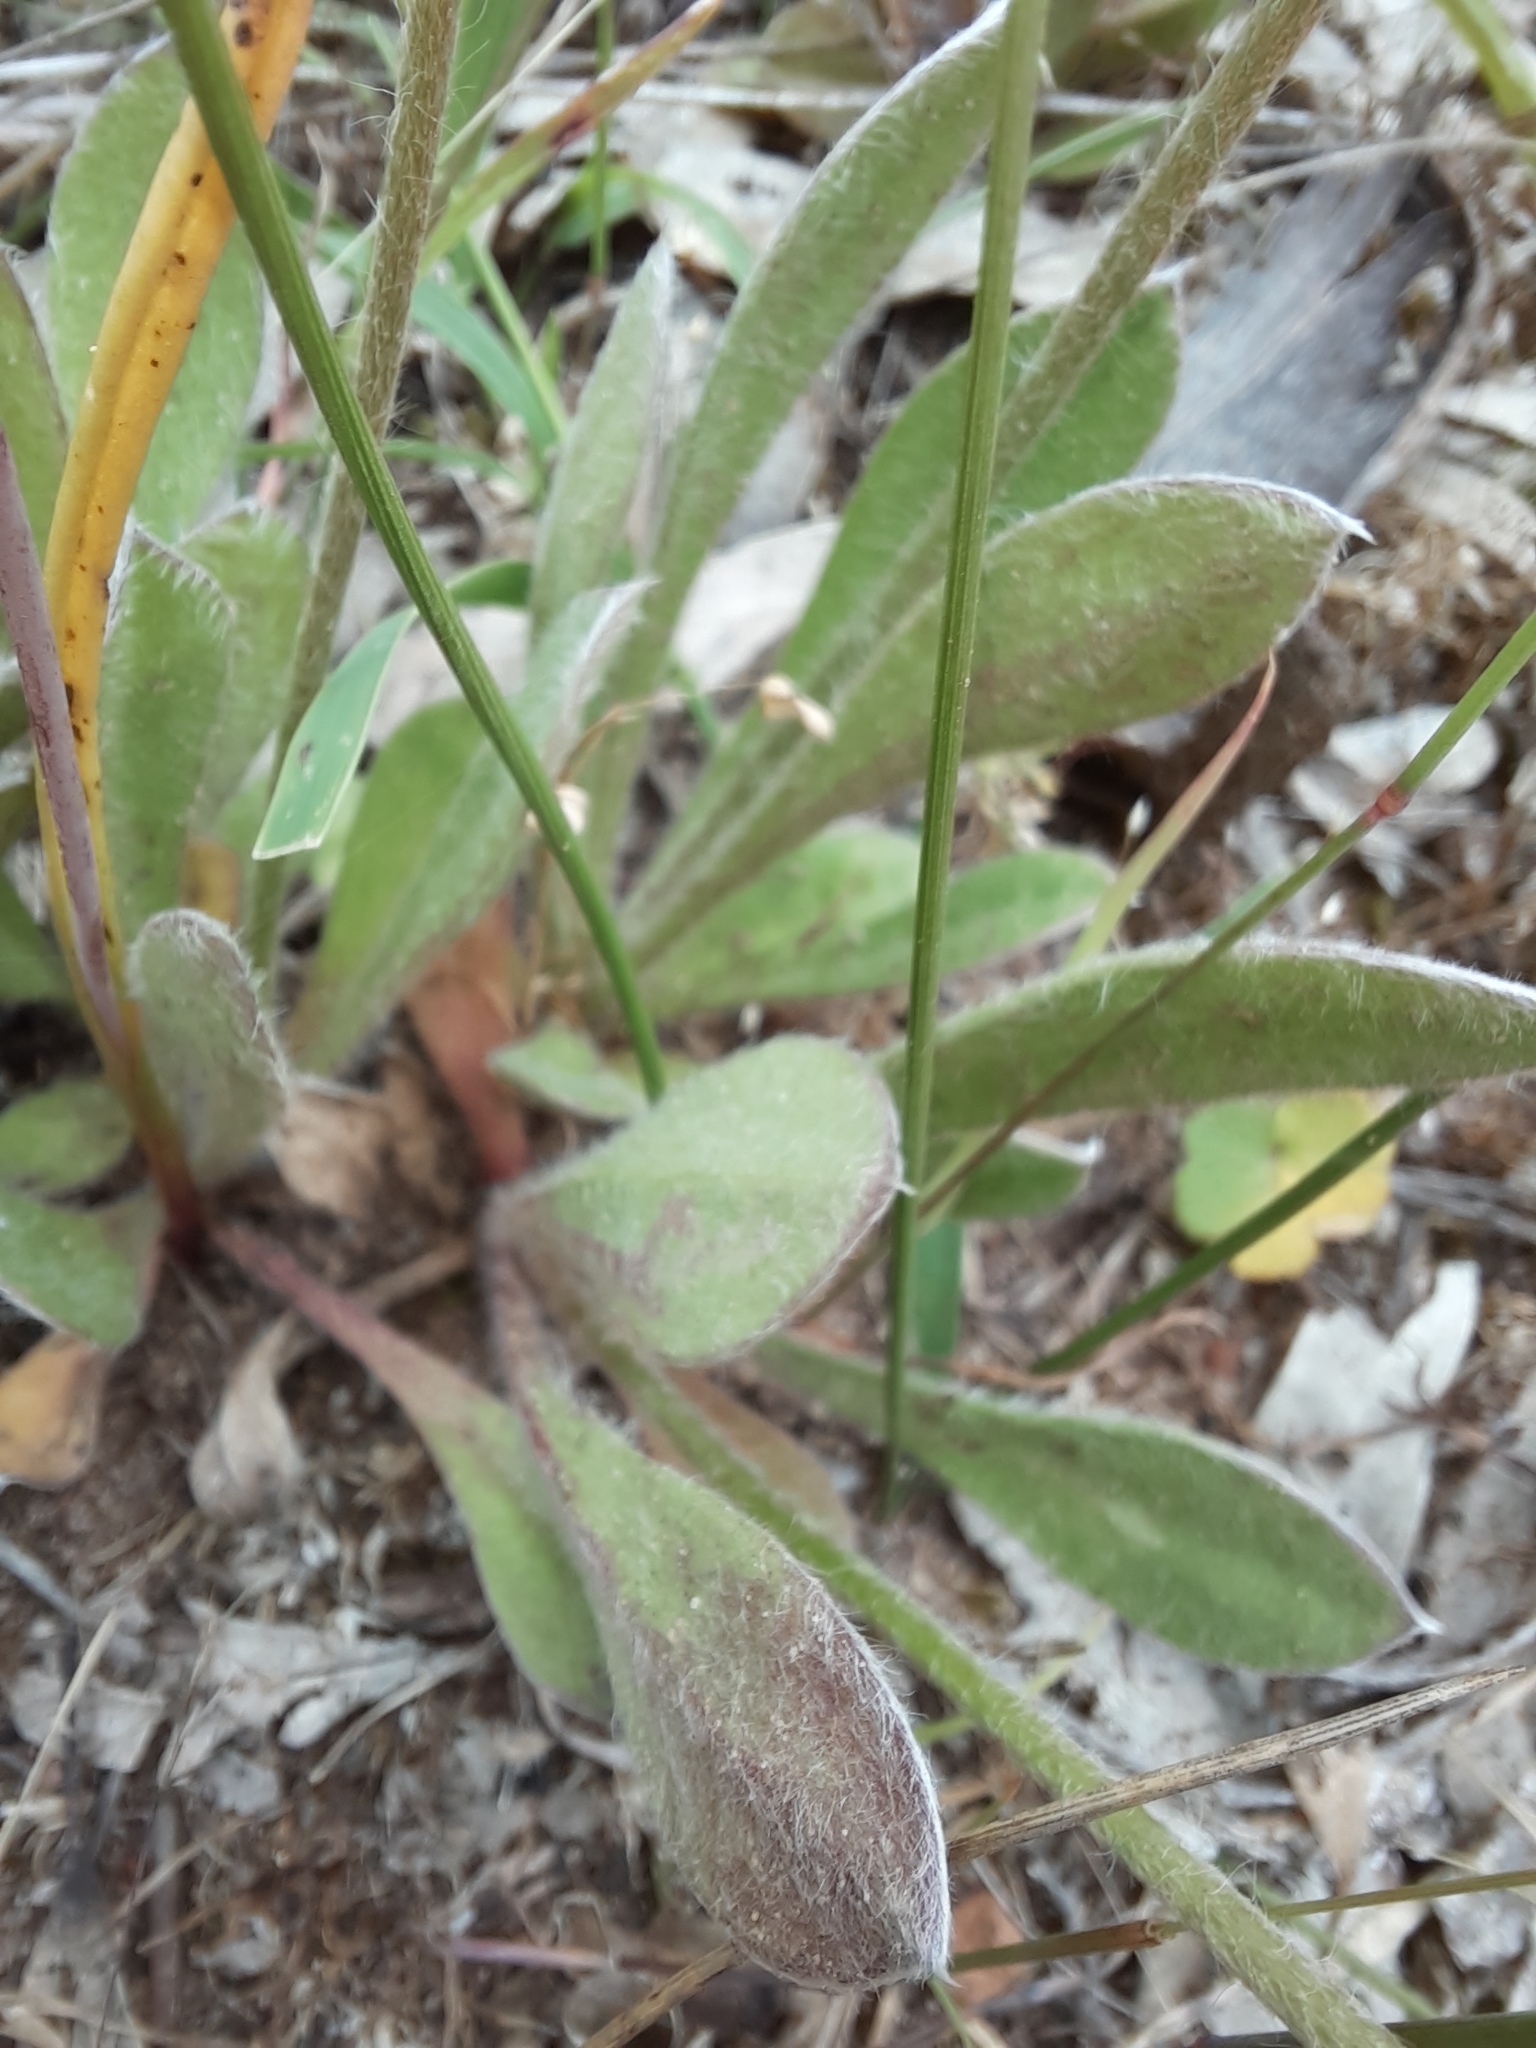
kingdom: Plantae
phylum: Tracheophyta
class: Magnoliopsida
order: Asterales
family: Goodeniaceae
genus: Brunonia
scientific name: Brunonia australis
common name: Blue pincushion
